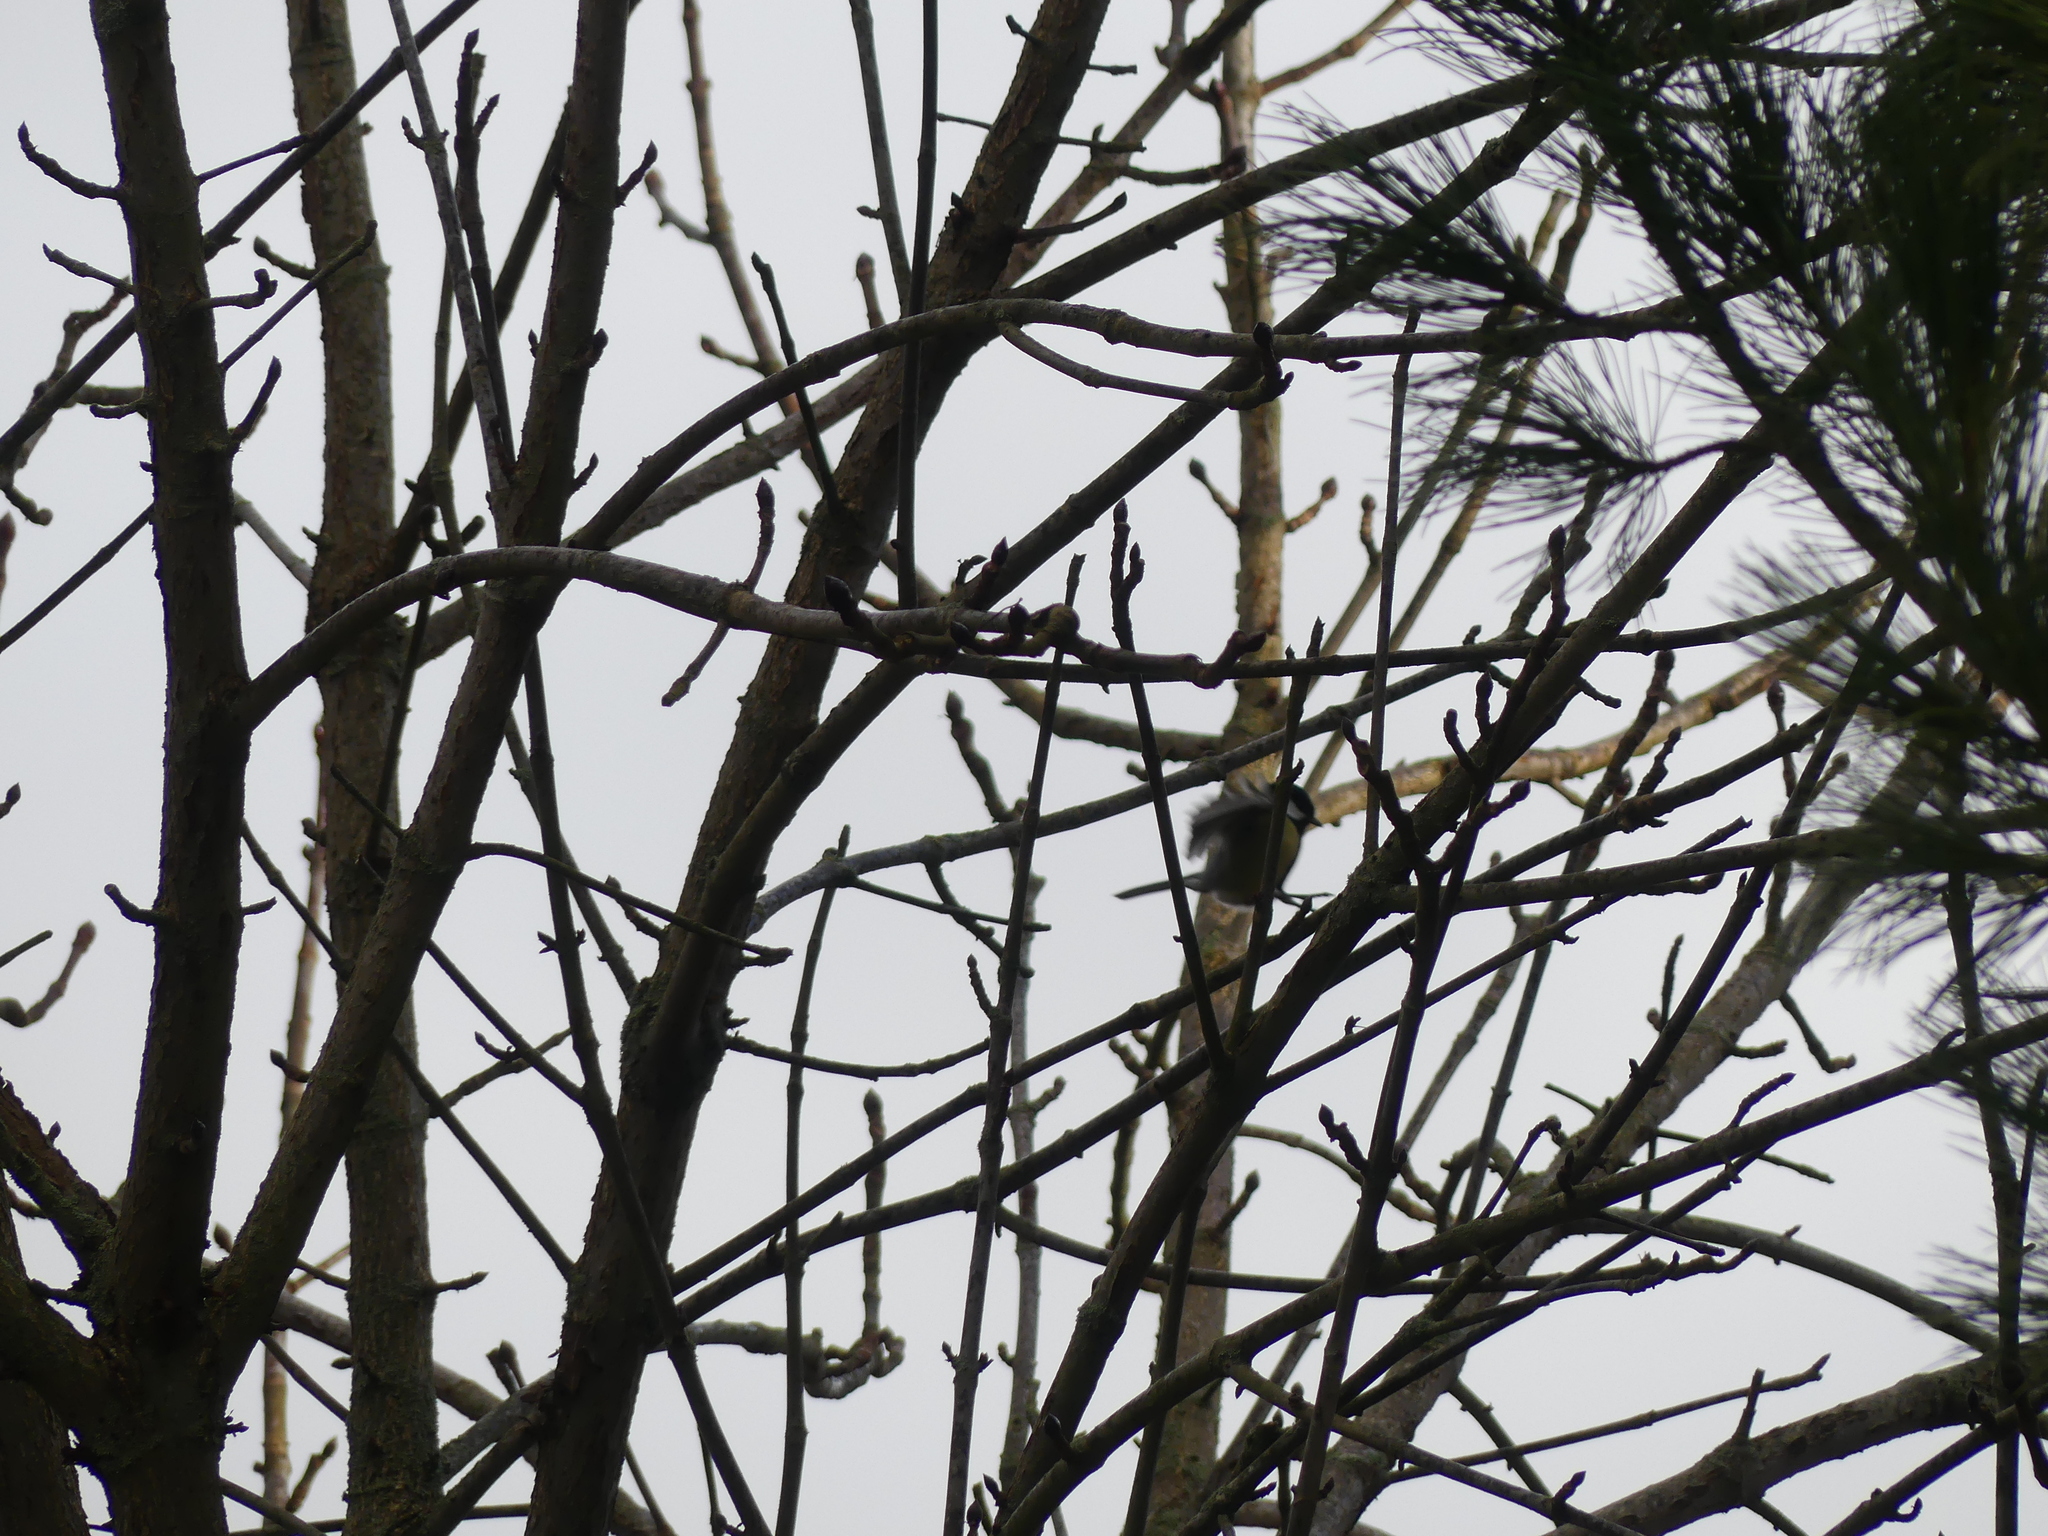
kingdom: Animalia
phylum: Chordata
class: Aves
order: Passeriformes
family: Paridae
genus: Parus
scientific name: Parus major
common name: Great tit
